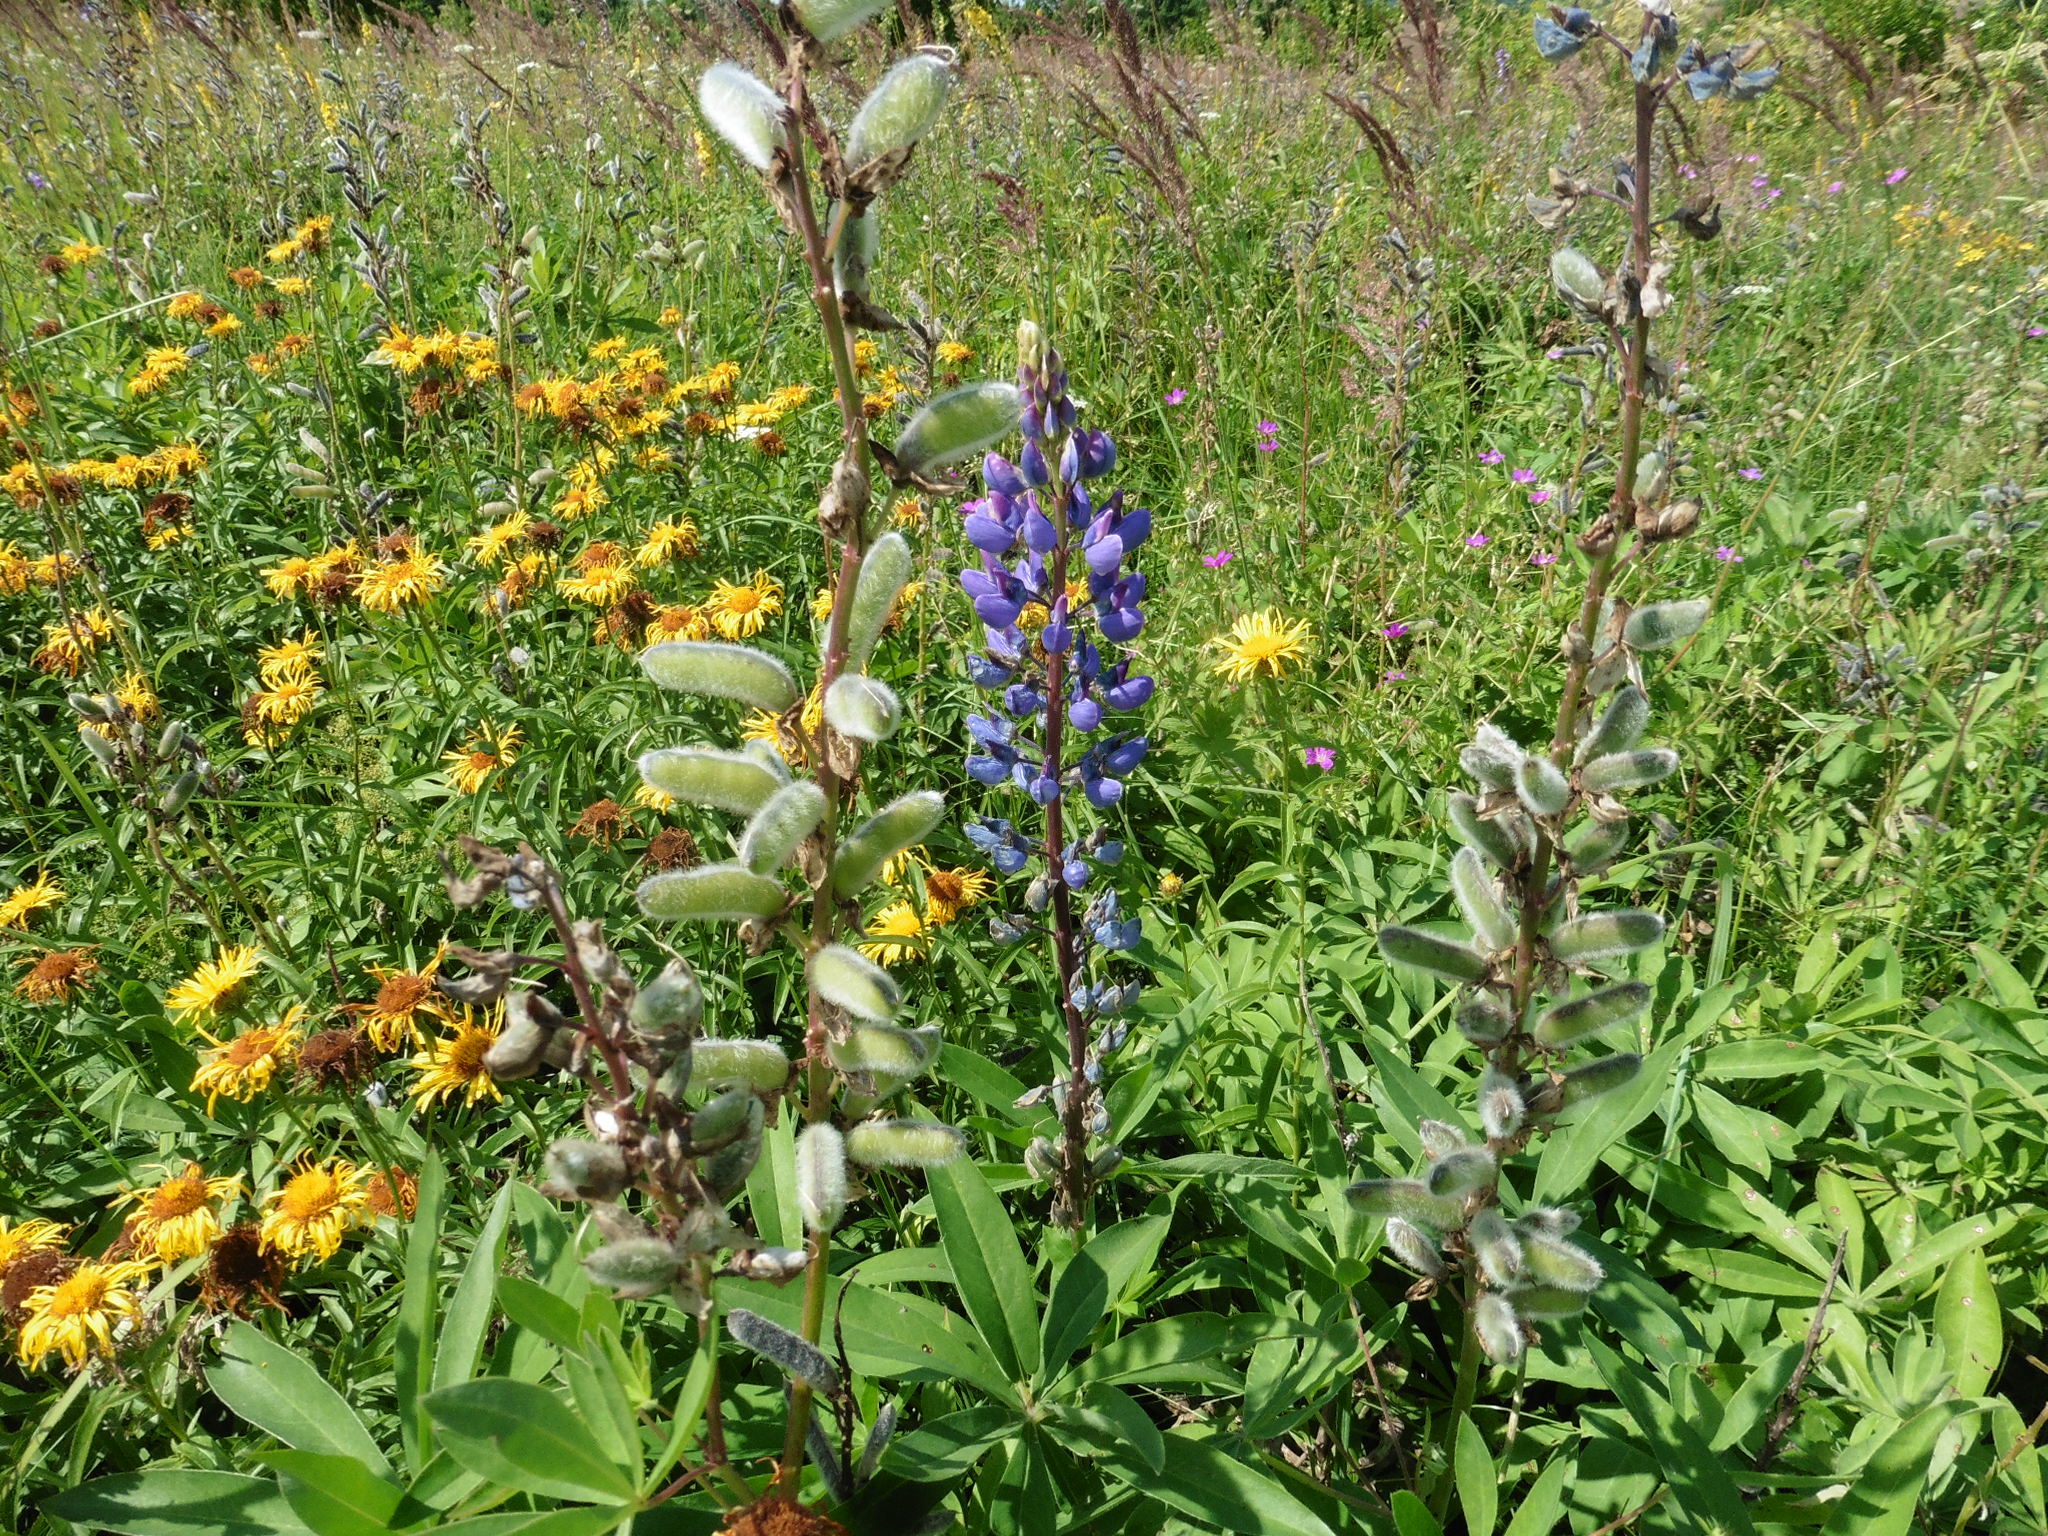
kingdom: Plantae
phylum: Tracheophyta
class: Magnoliopsida
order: Fabales
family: Fabaceae
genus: Lupinus
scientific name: Lupinus polyphyllus
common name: Garden lupin
